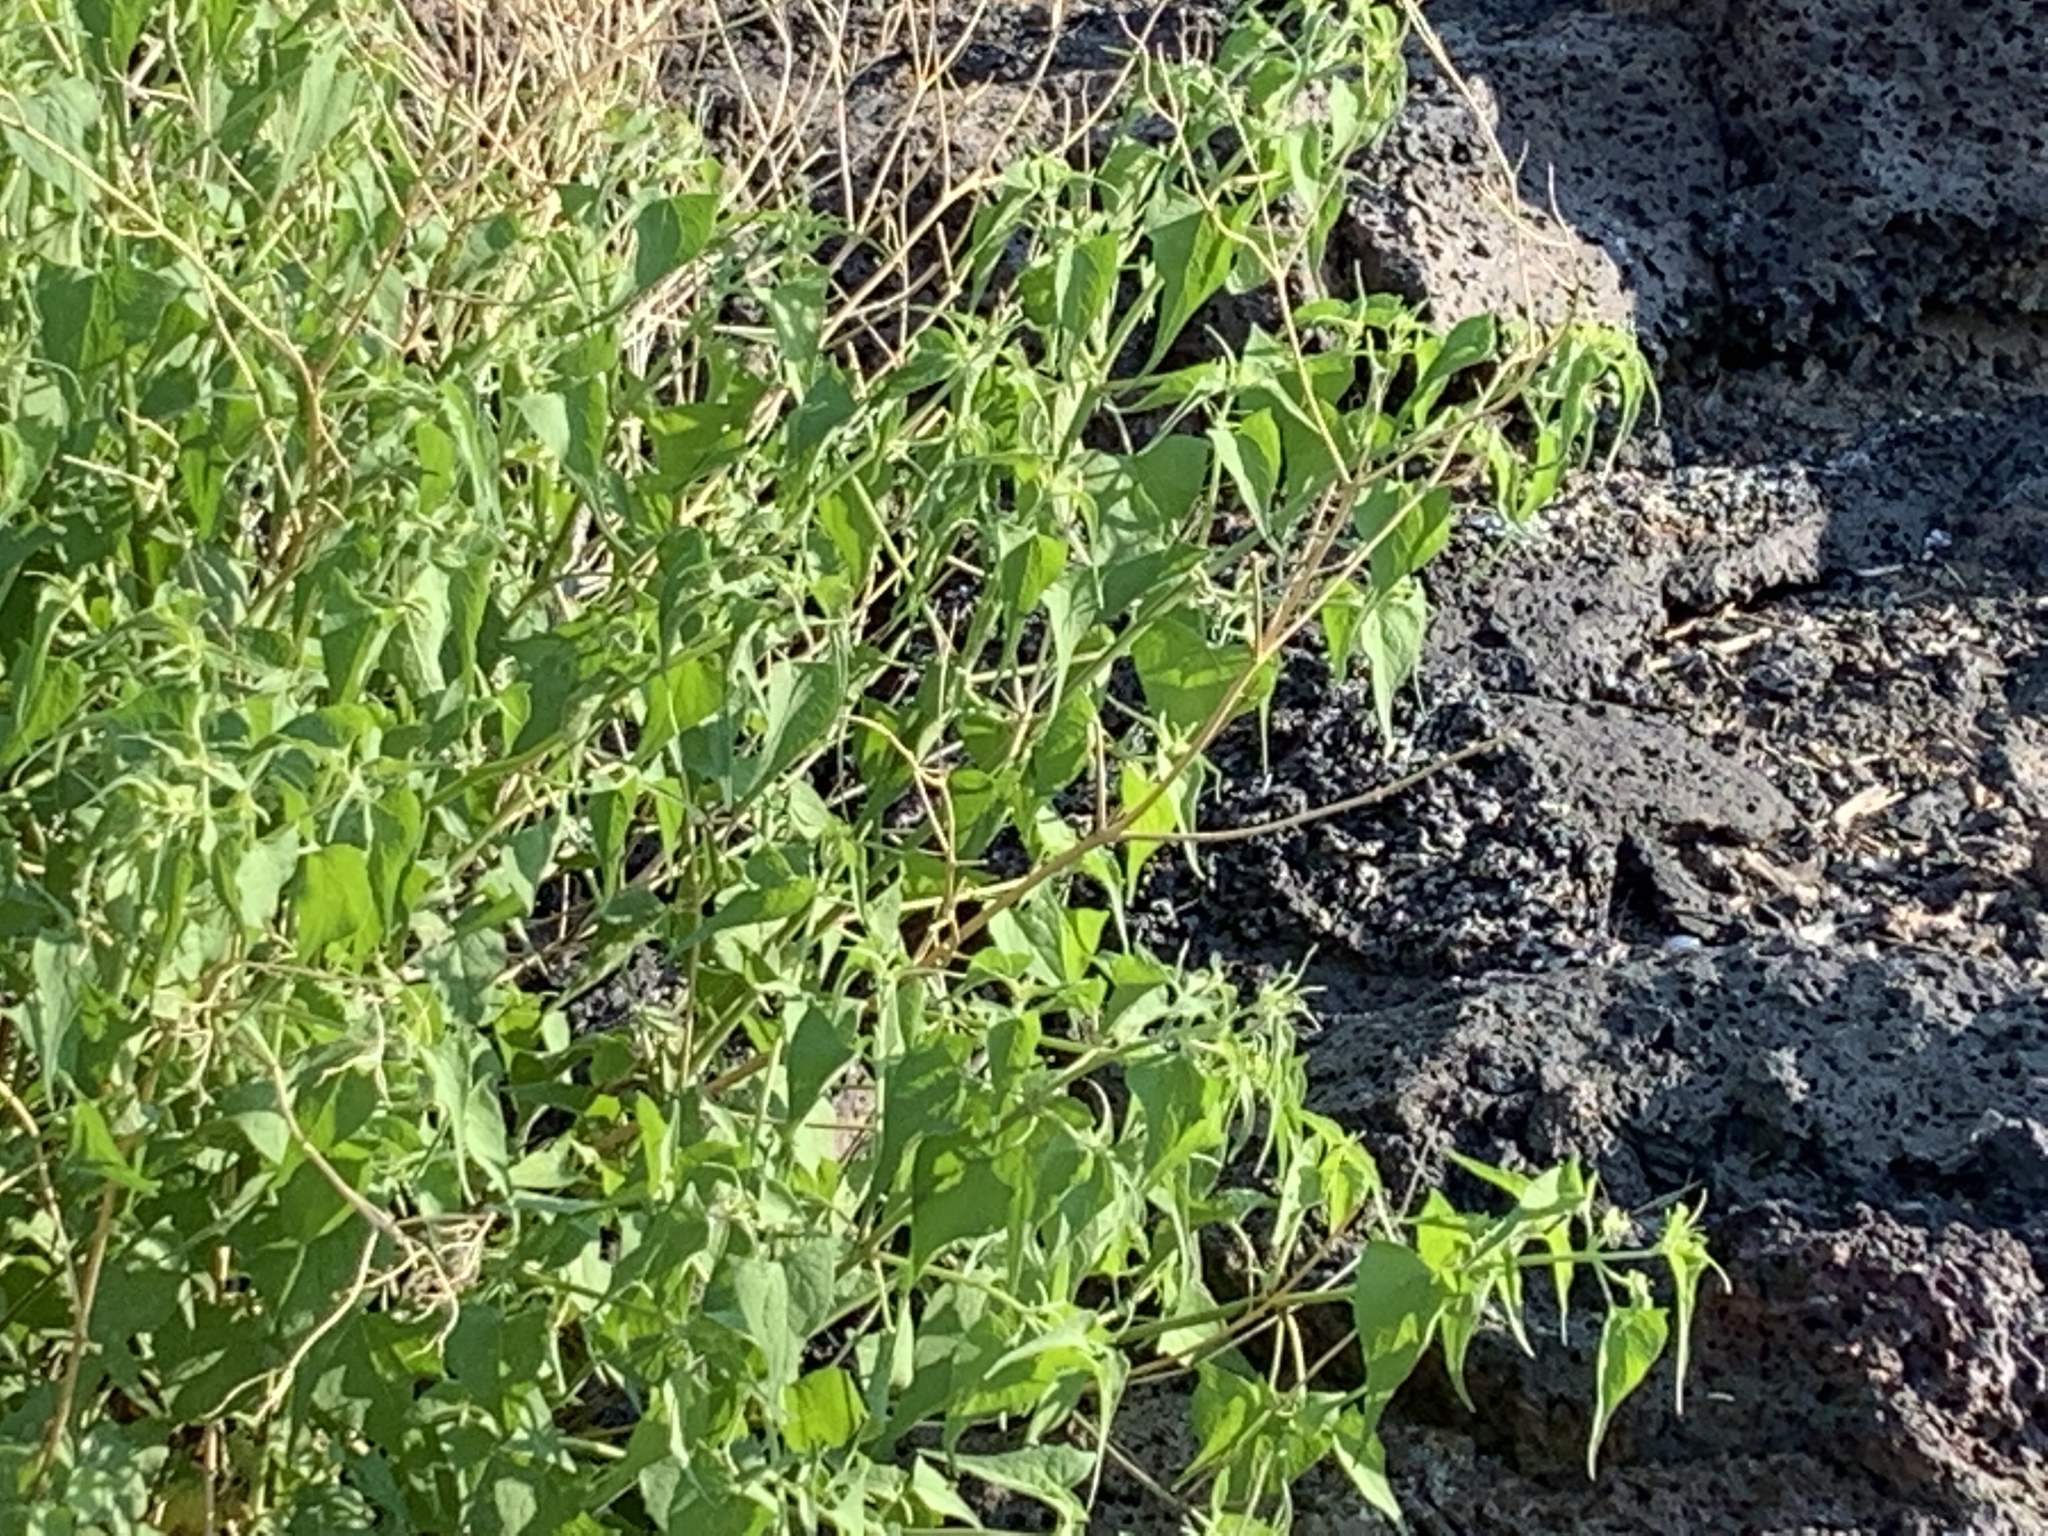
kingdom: Plantae
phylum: Tracheophyta
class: Magnoliopsida
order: Asterales
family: Asteraceae
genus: Pericome
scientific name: Pericome caudata
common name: Taperleaf
